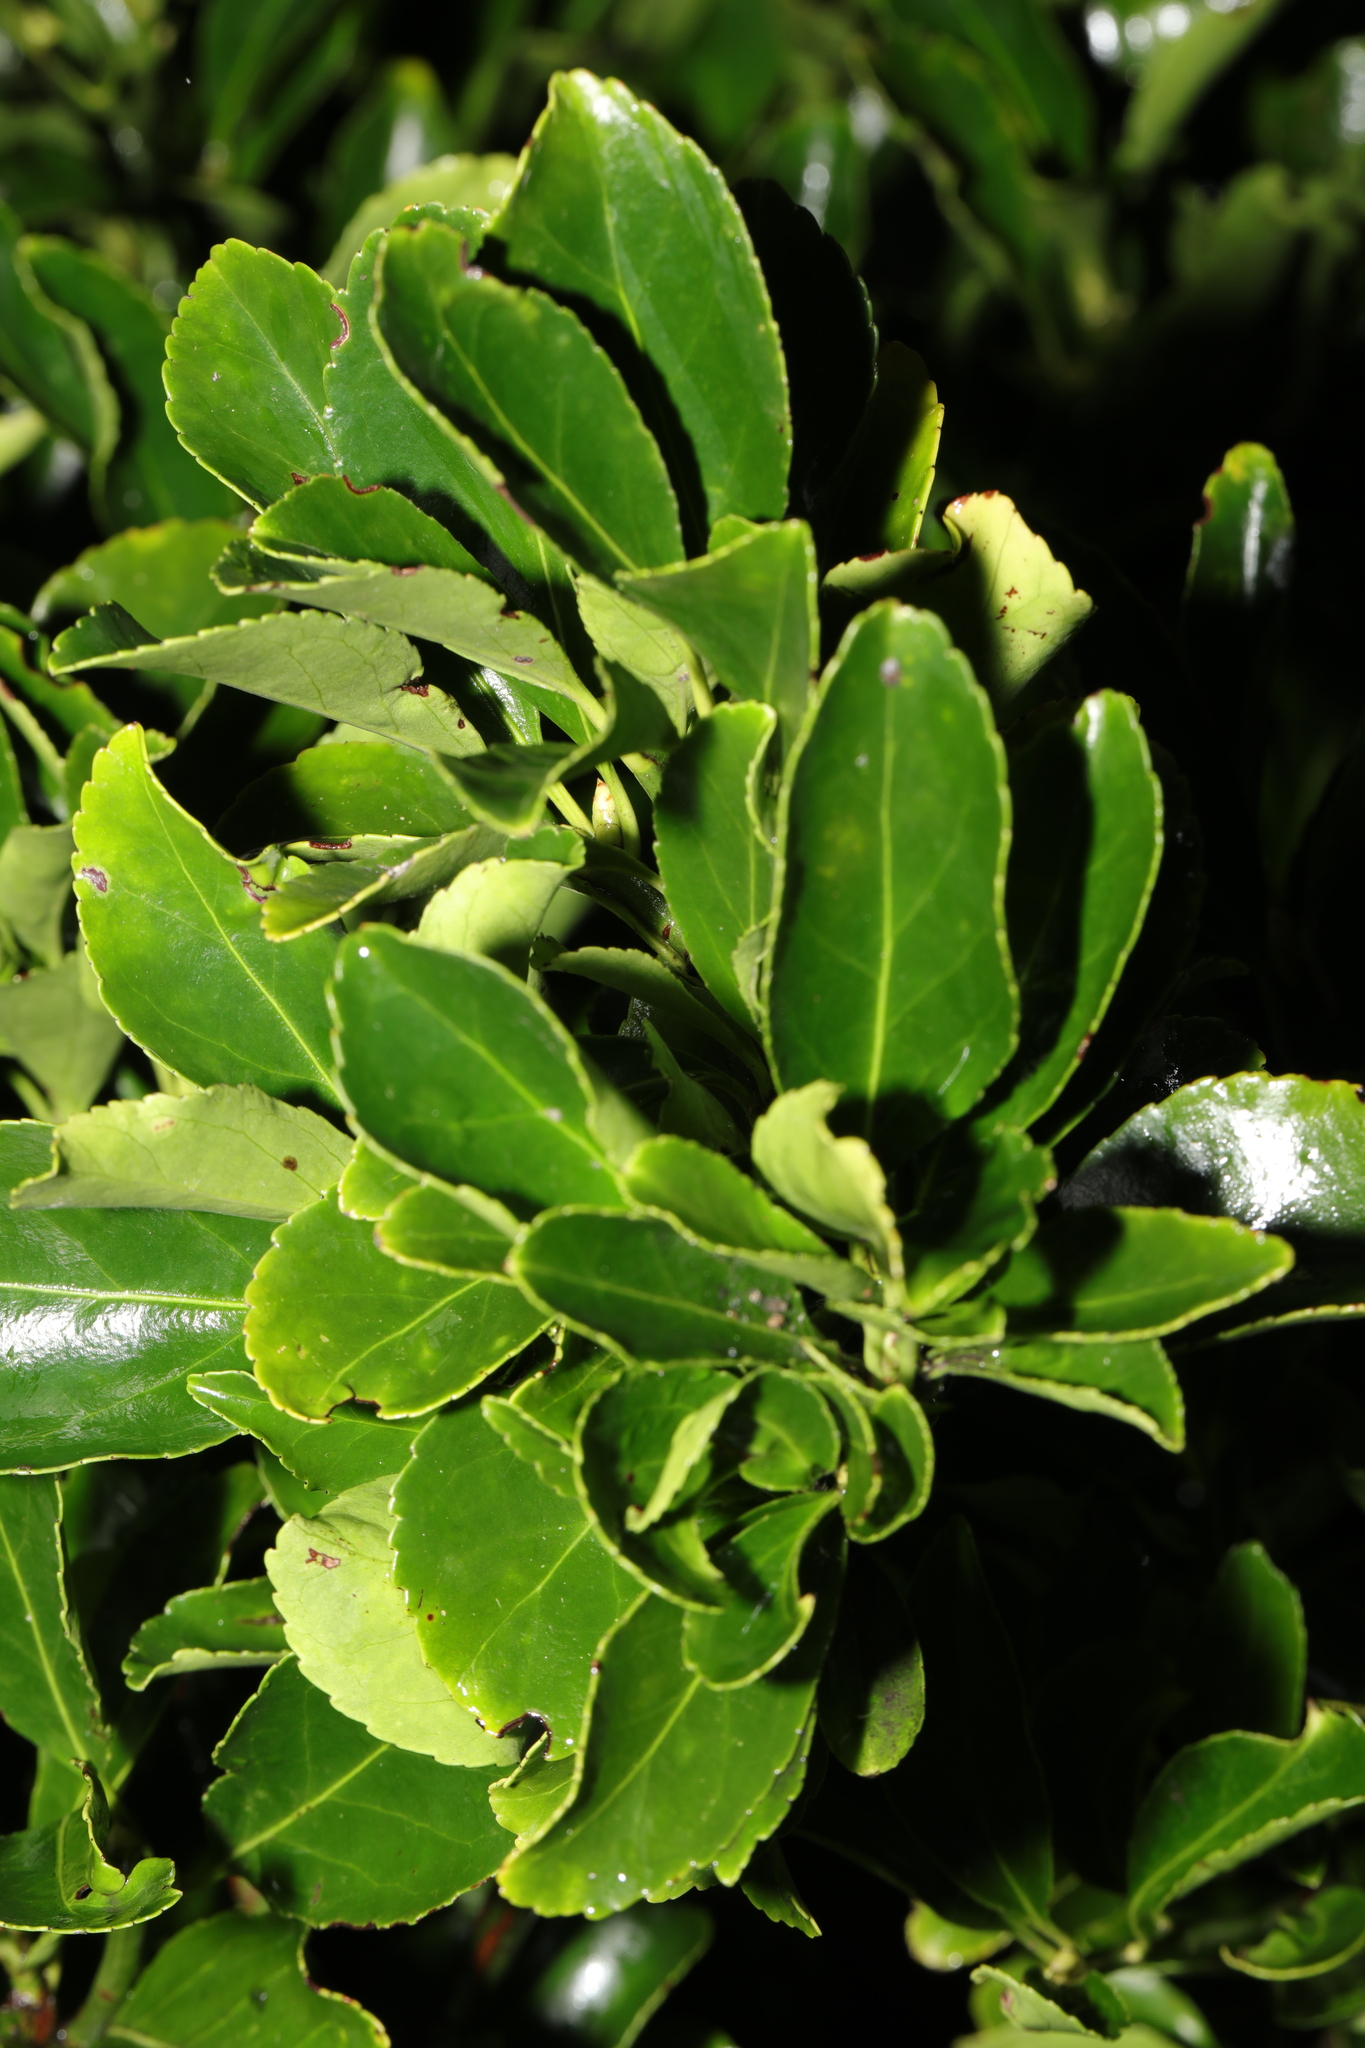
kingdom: Plantae
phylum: Tracheophyta
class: Magnoliopsida
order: Celastrales
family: Celastraceae
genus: Euonymus
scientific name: Euonymus japonicus
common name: Japanese spindletree
